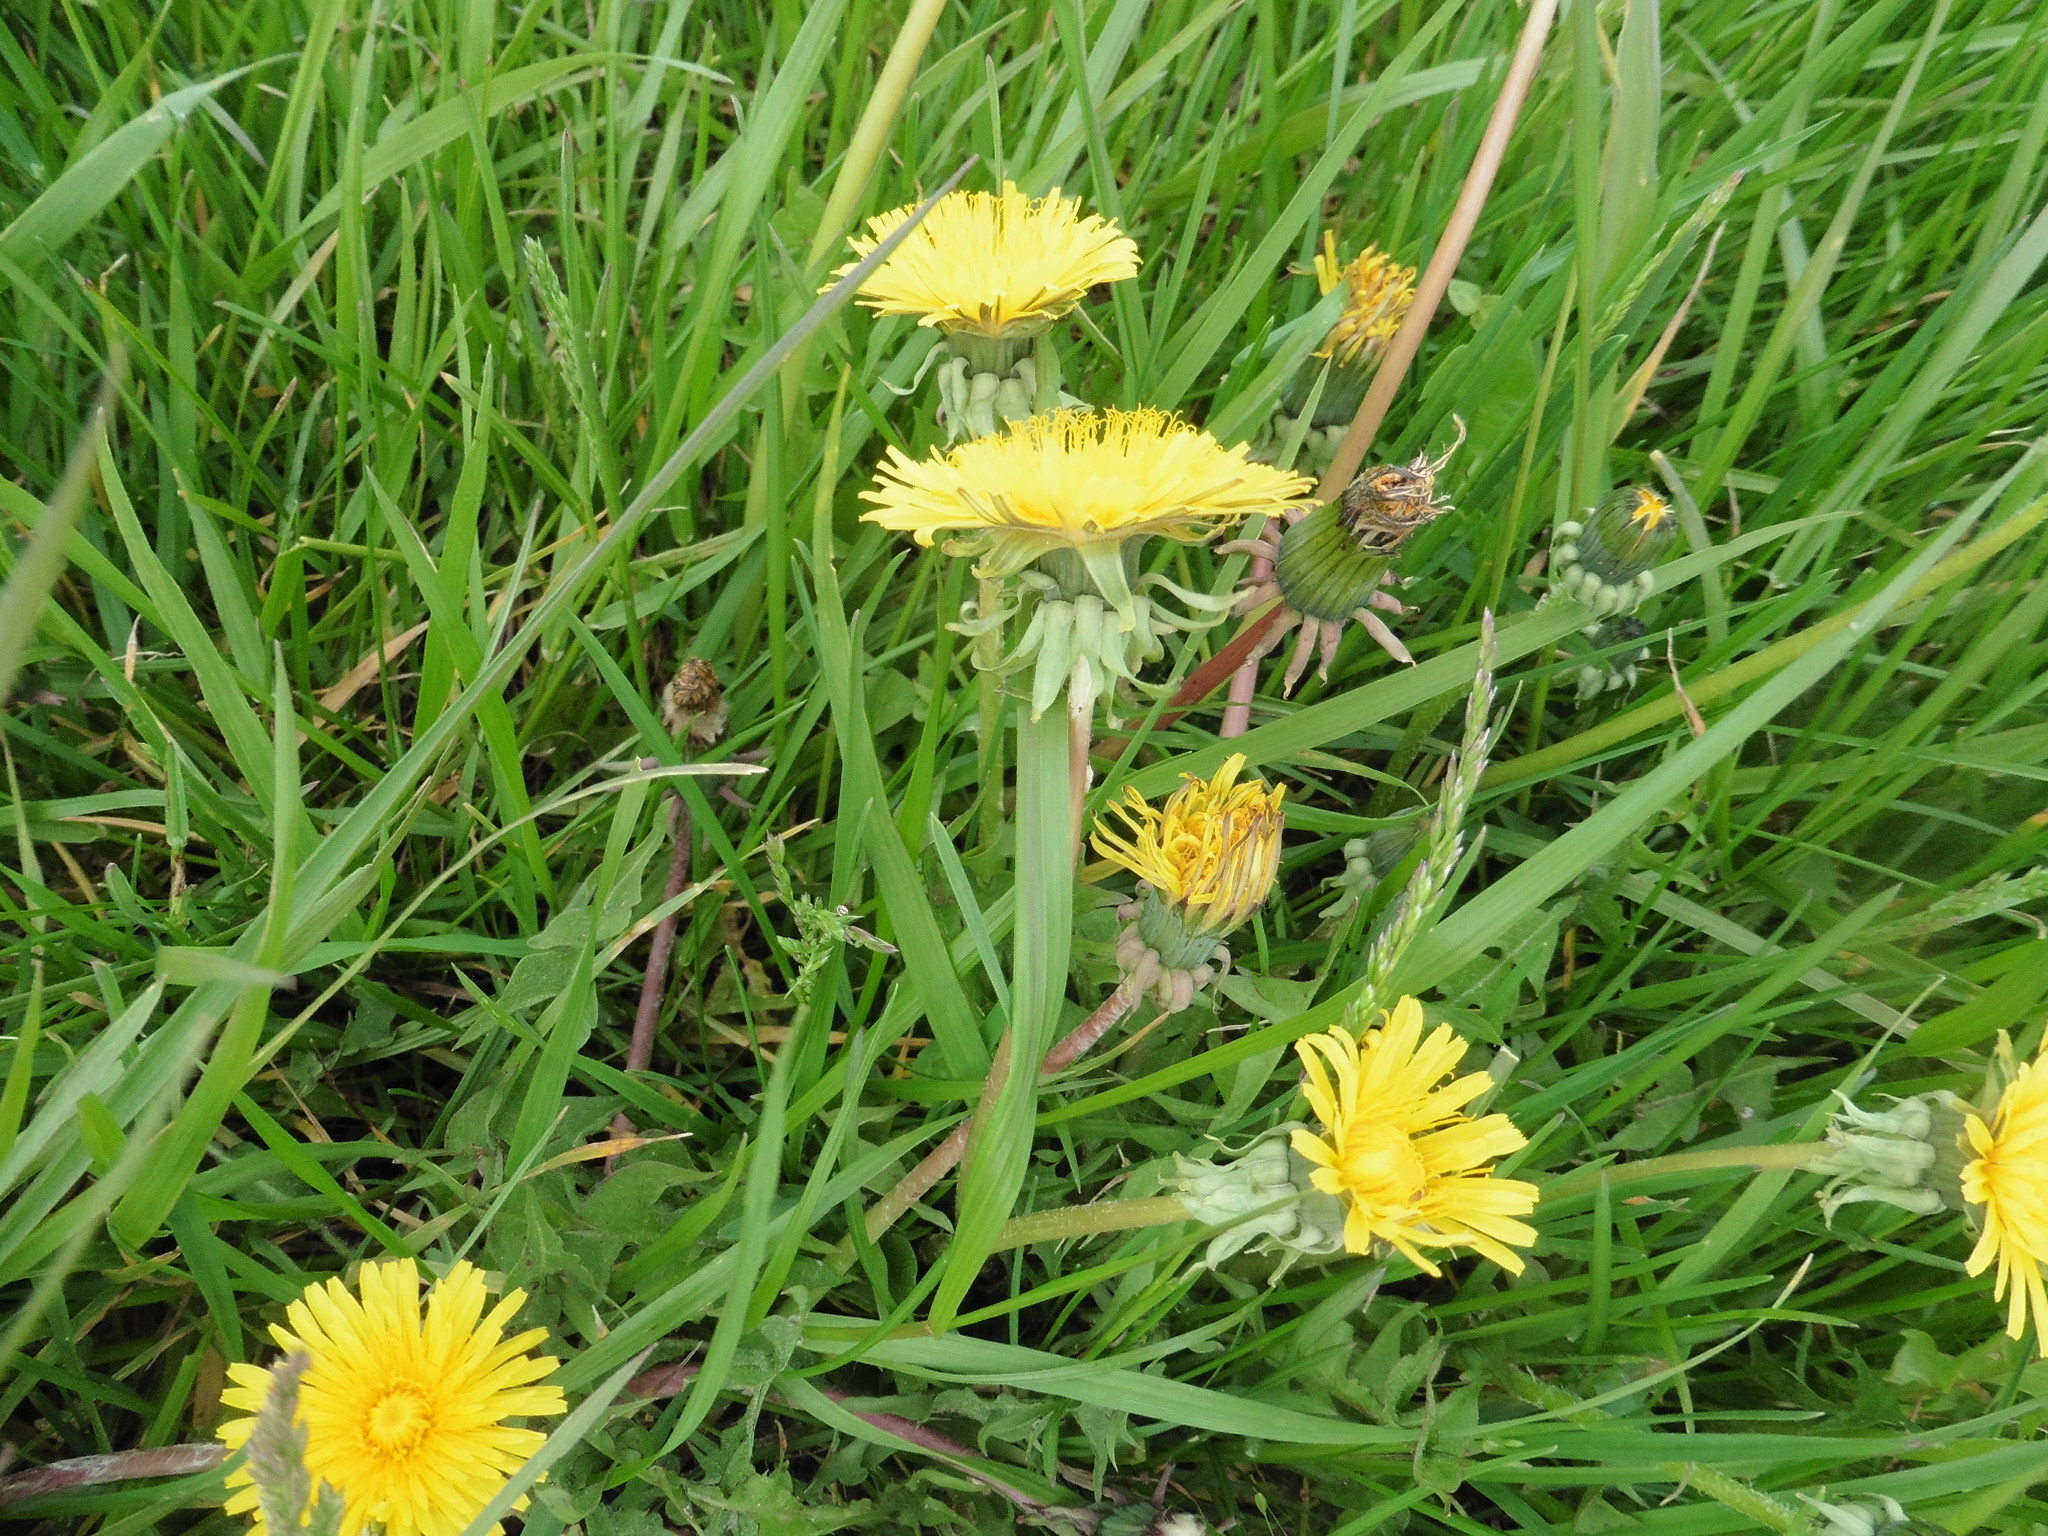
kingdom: Plantae
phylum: Tracheophyta
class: Magnoliopsida
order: Asterales
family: Asteraceae
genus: Taraxacum
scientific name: Taraxacum officinale
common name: Common dandelion
